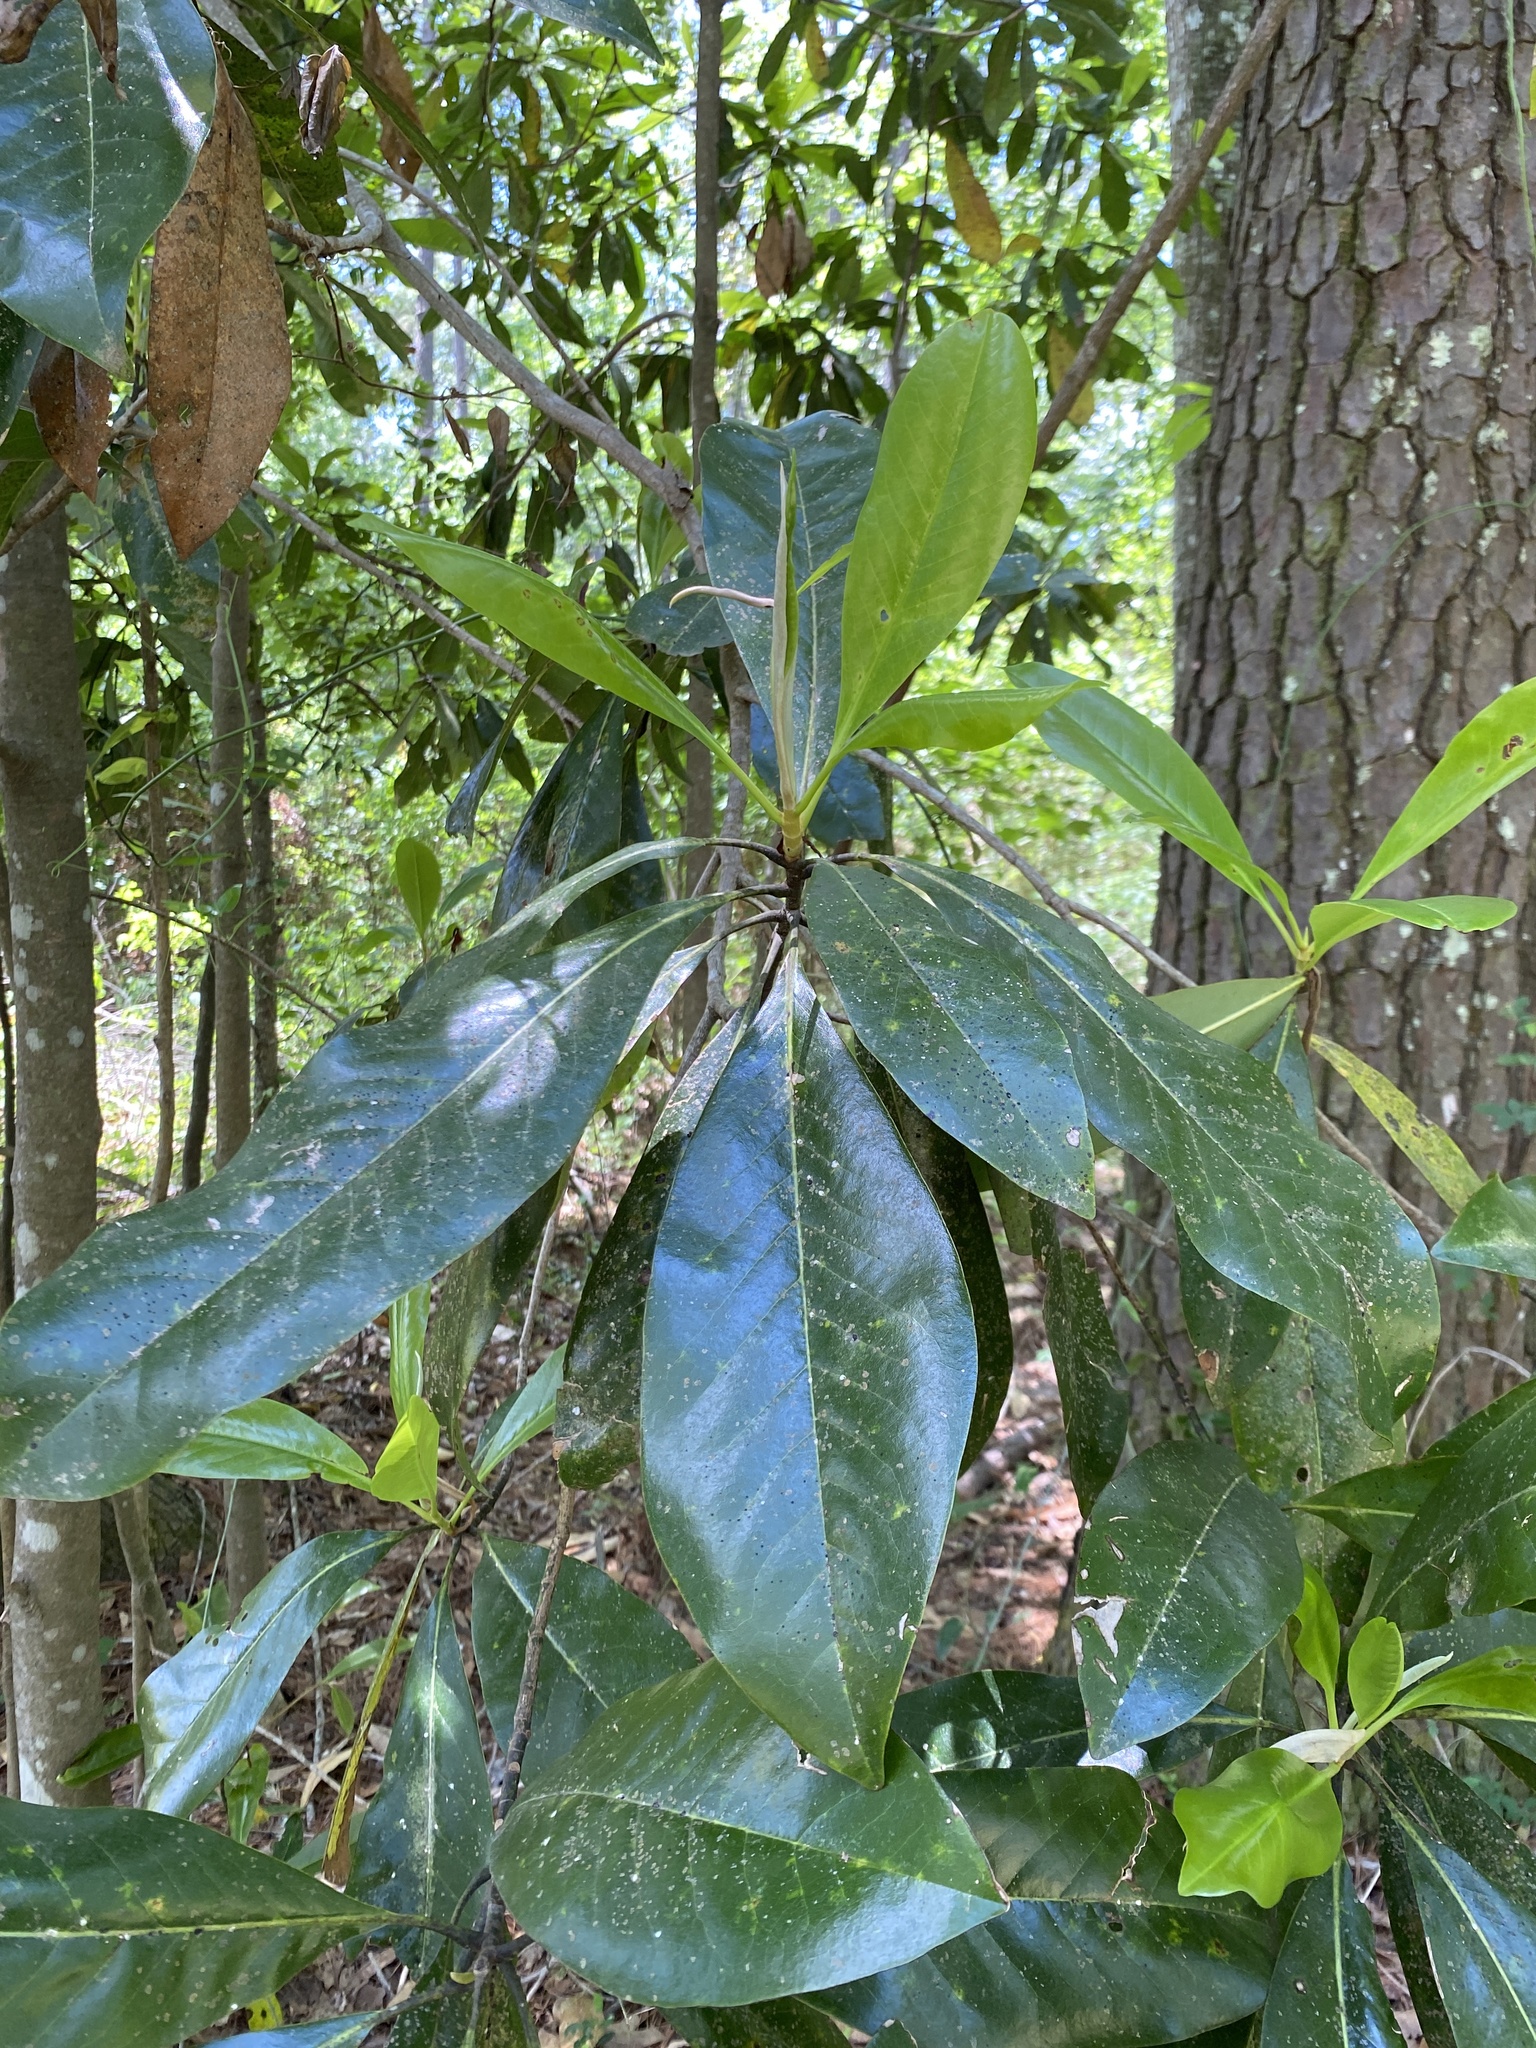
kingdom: Plantae
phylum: Tracheophyta
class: Magnoliopsida
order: Magnoliales
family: Magnoliaceae
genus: Magnolia
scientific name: Magnolia grandiflora
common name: Southern magnolia
